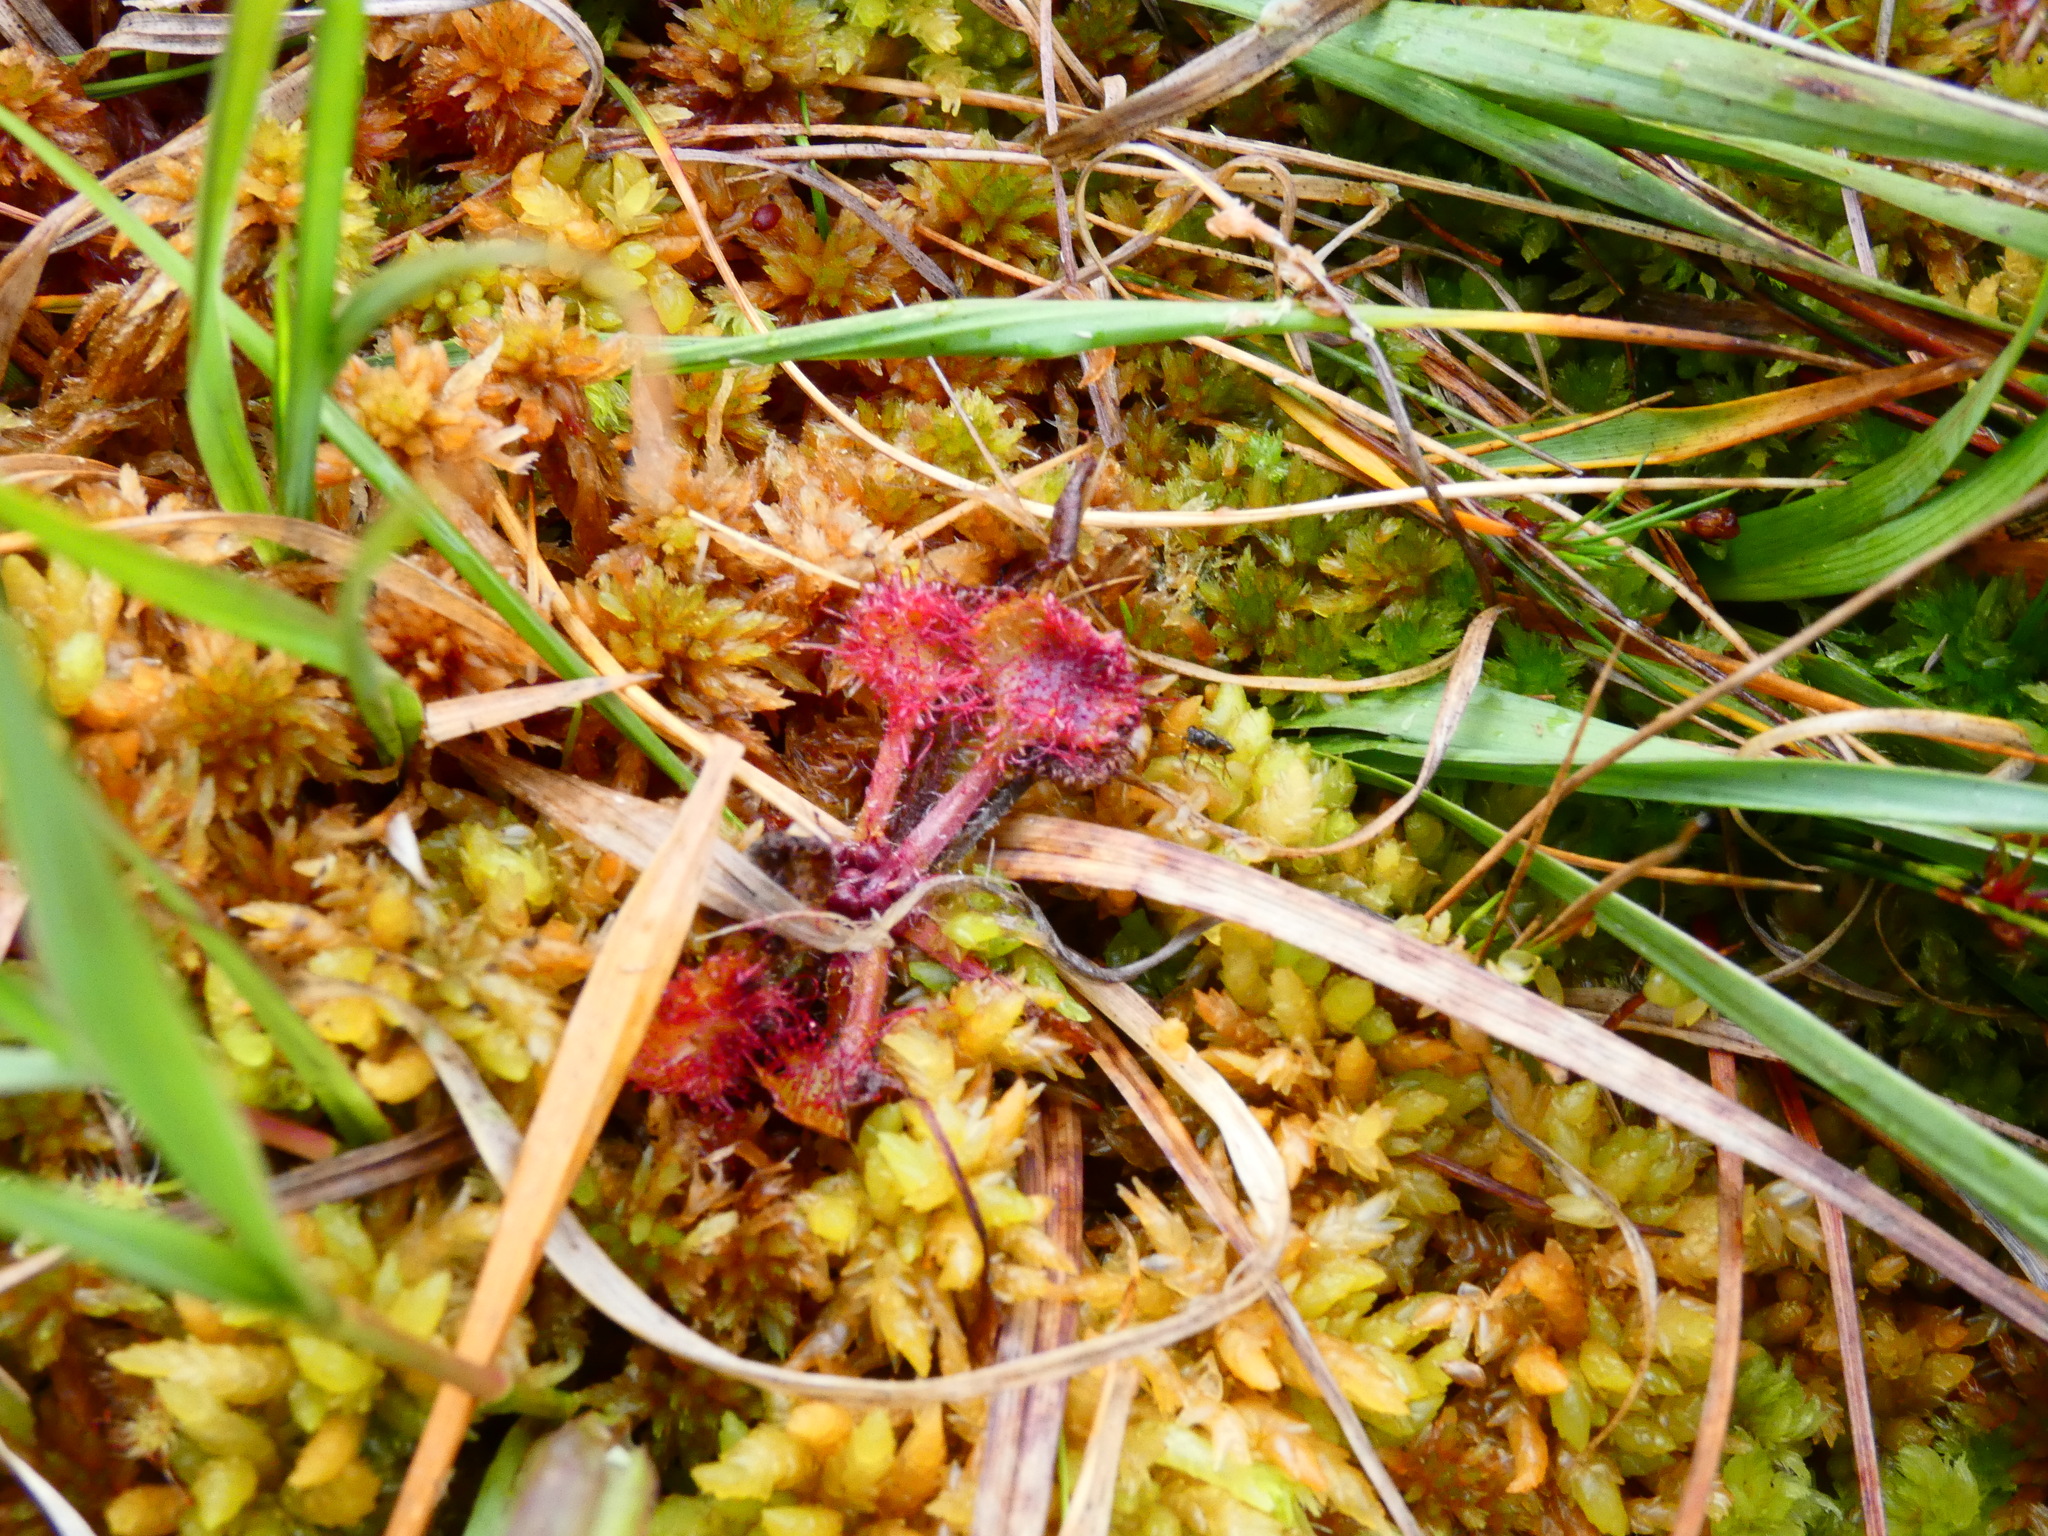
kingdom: Plantae
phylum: Tracheophyta
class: Magnoliopsida
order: Caryophyllales
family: Droseraceae
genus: Drosera
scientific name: Drosera rotundifolia
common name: Round-leaved sundew
